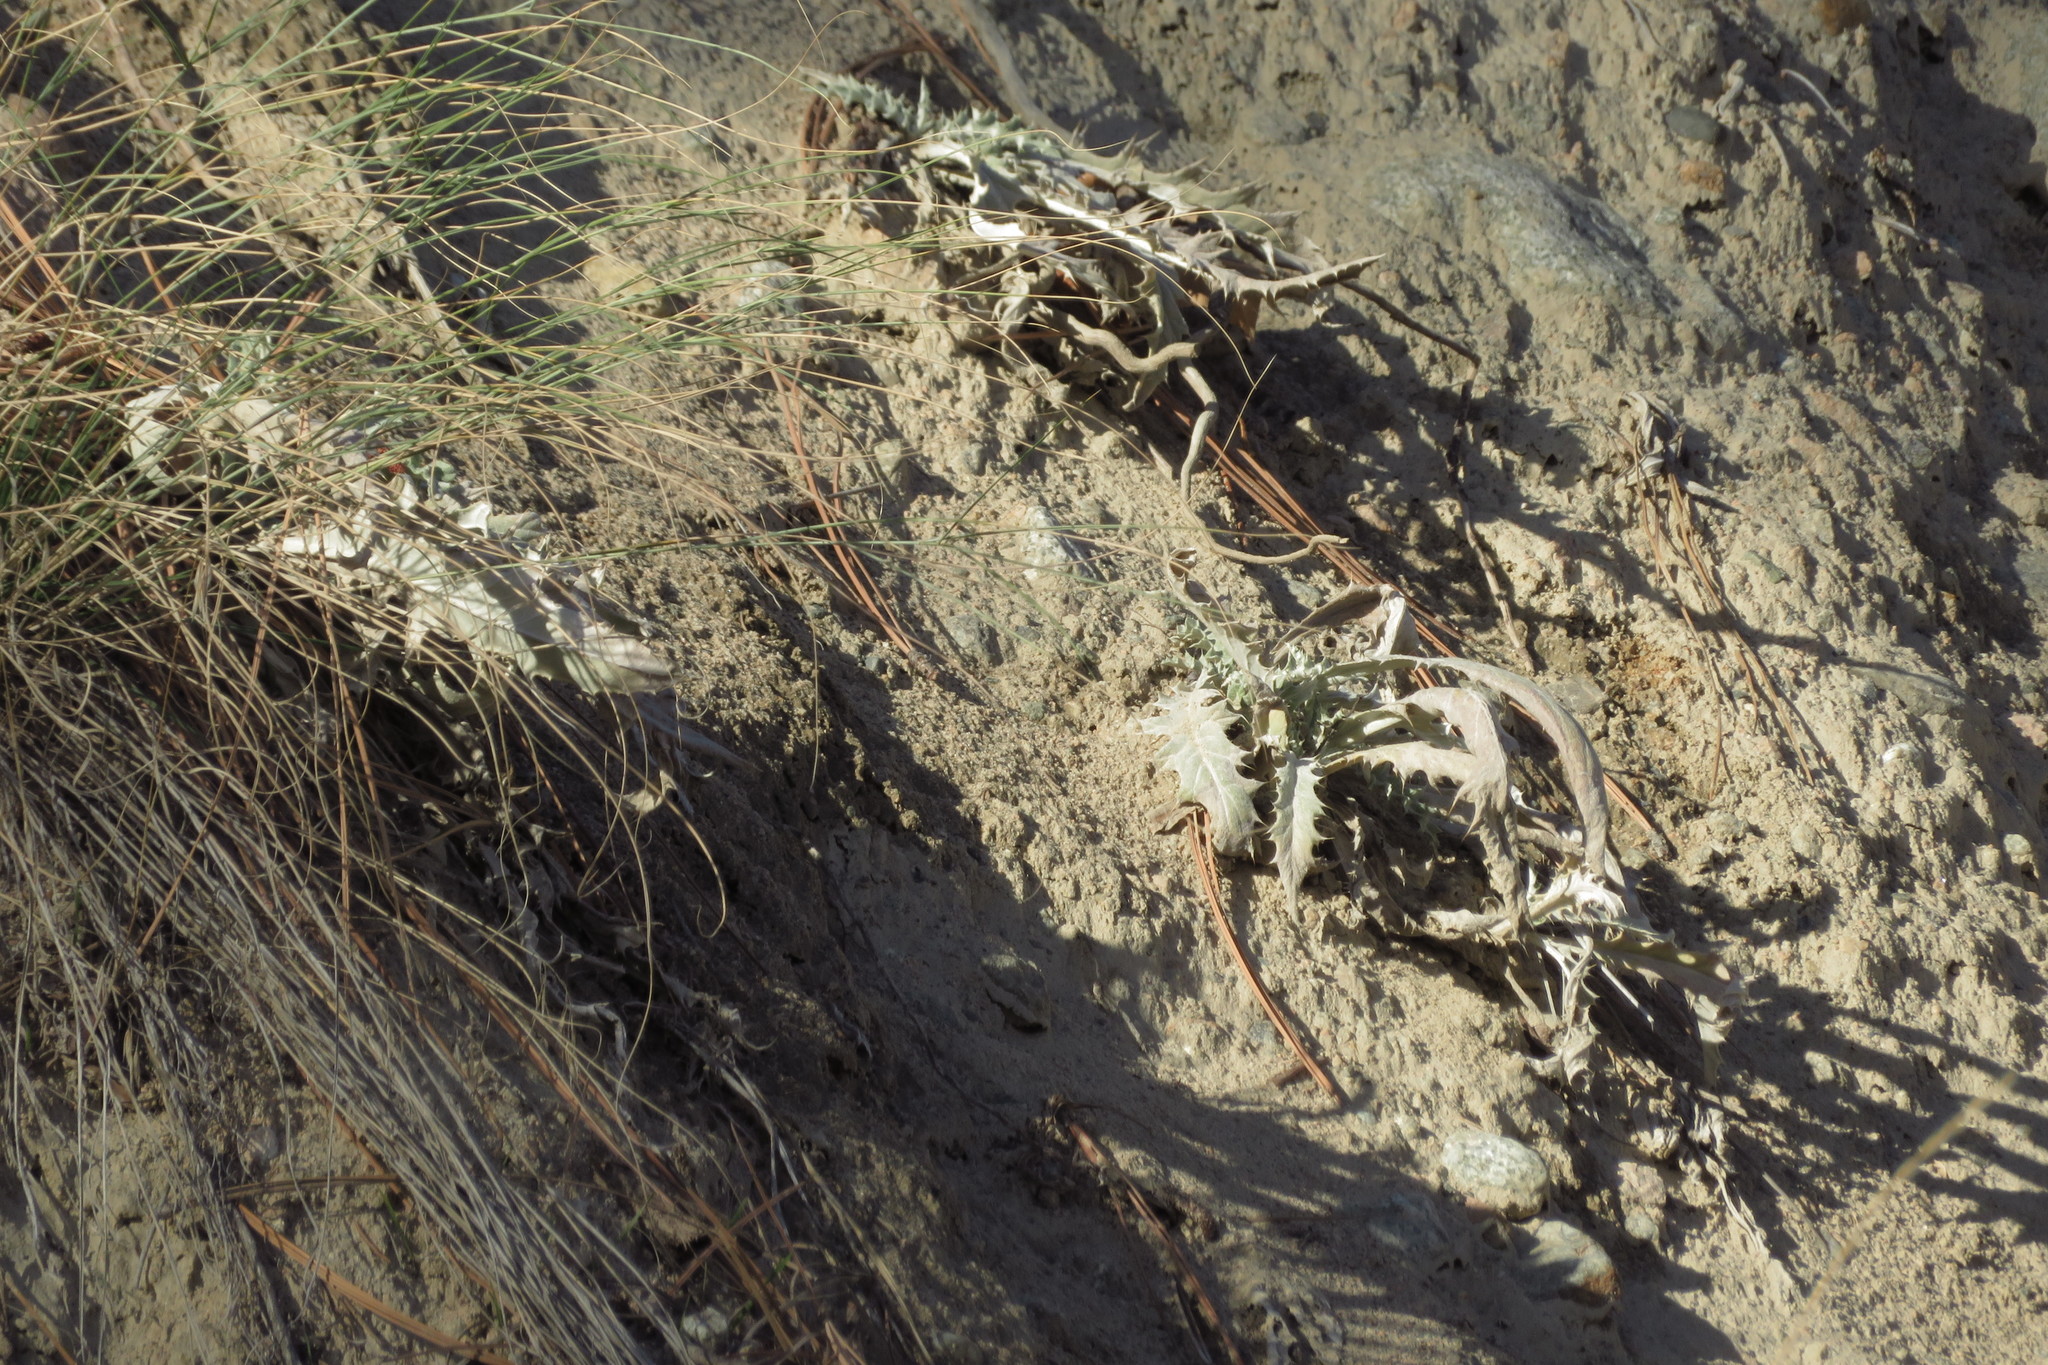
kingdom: Plantae
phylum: Tracheophyta
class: Magnoliopsida
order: Asterales
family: Asteraceae
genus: Cirsium
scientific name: Cirsium undulatum
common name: Pasture thistle
